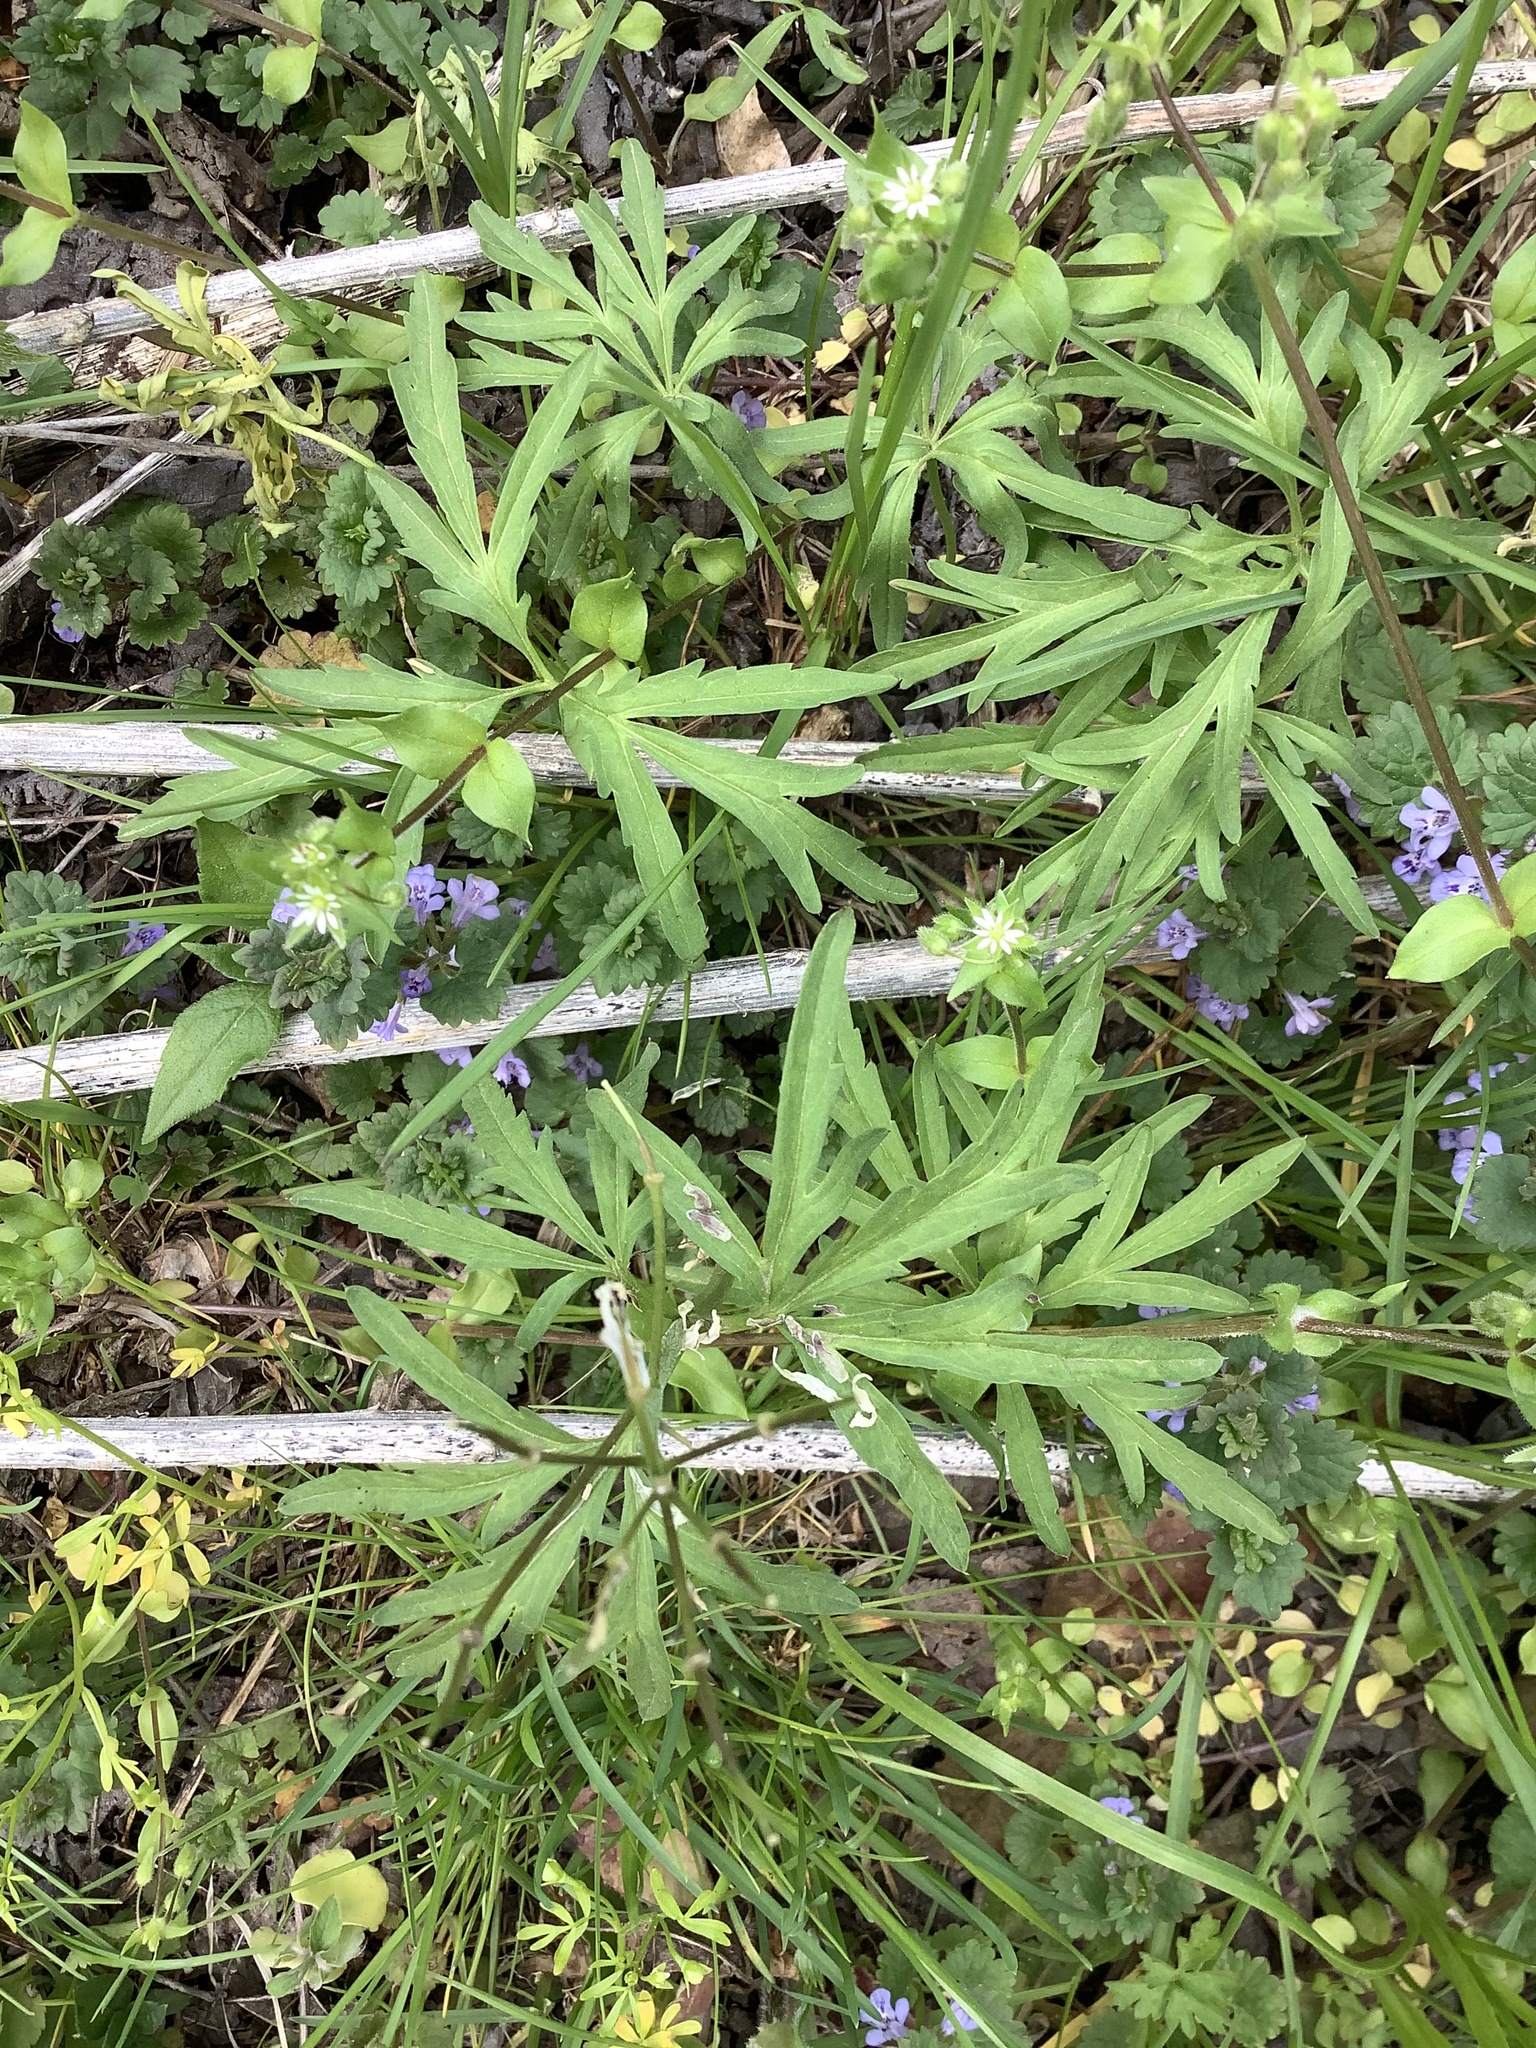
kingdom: Plantae
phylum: Tracheophyta
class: Magnoliopsida
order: Brassicales
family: Brassicaceae
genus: Cardamine
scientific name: Cardamine concatenata
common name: Cut-leaf toothcup
